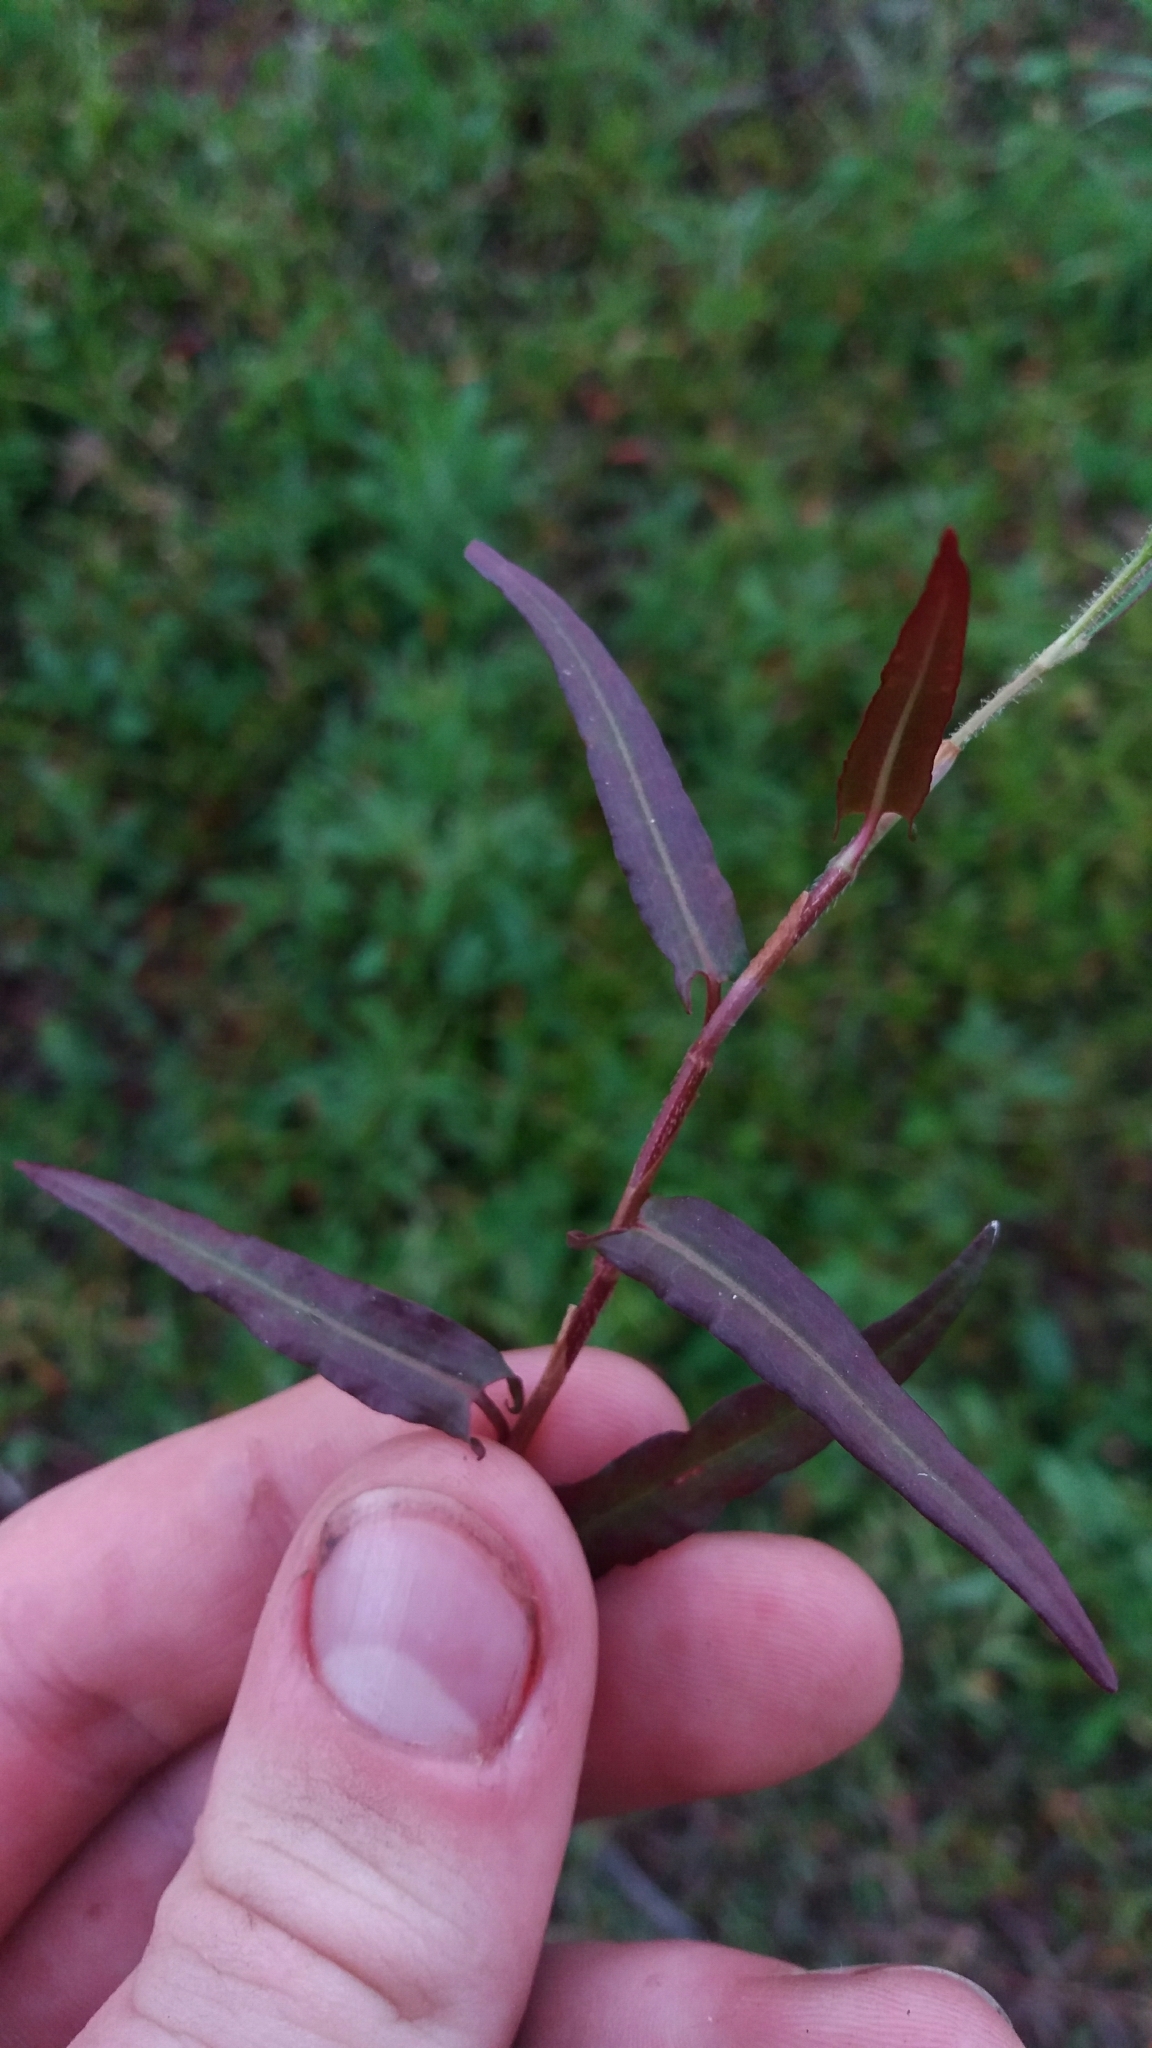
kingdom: Plantae
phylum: Tracheophyta
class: Magnoliopsida
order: Caryophyllales
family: Polygonaceae
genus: Persicaria
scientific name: Persicaria strigosa
